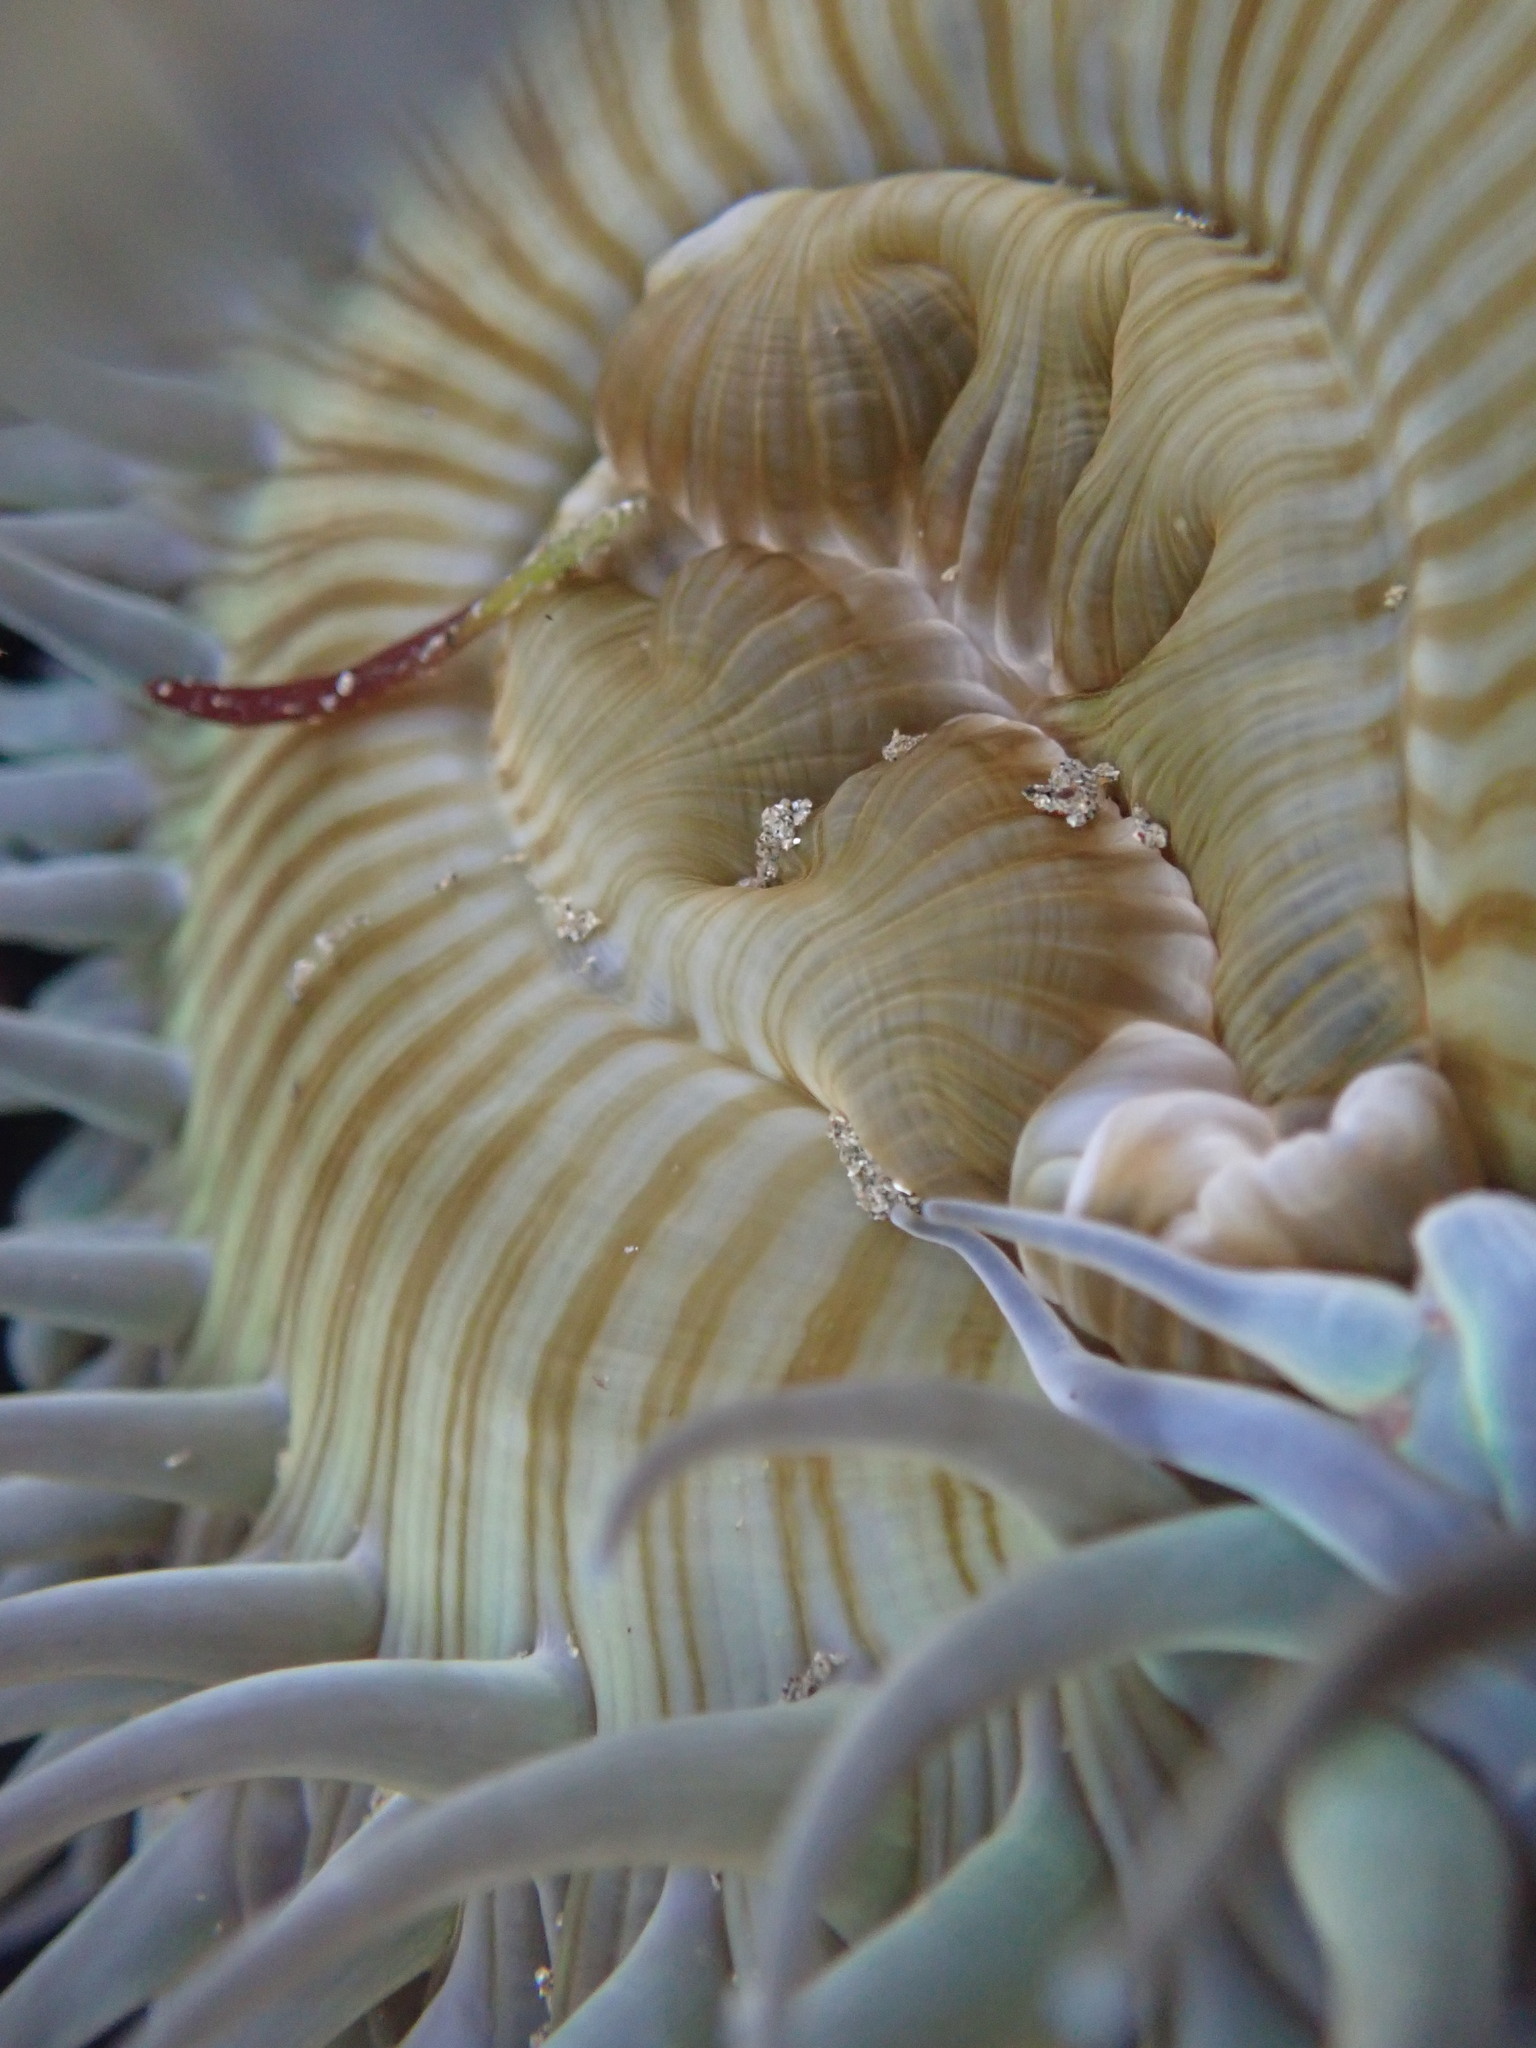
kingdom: Animalia
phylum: Cnidaria
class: Anthozoa
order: Actiniaria
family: Actiniidae
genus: Anthopleura
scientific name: Anthopleura sola
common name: Sun anemone
